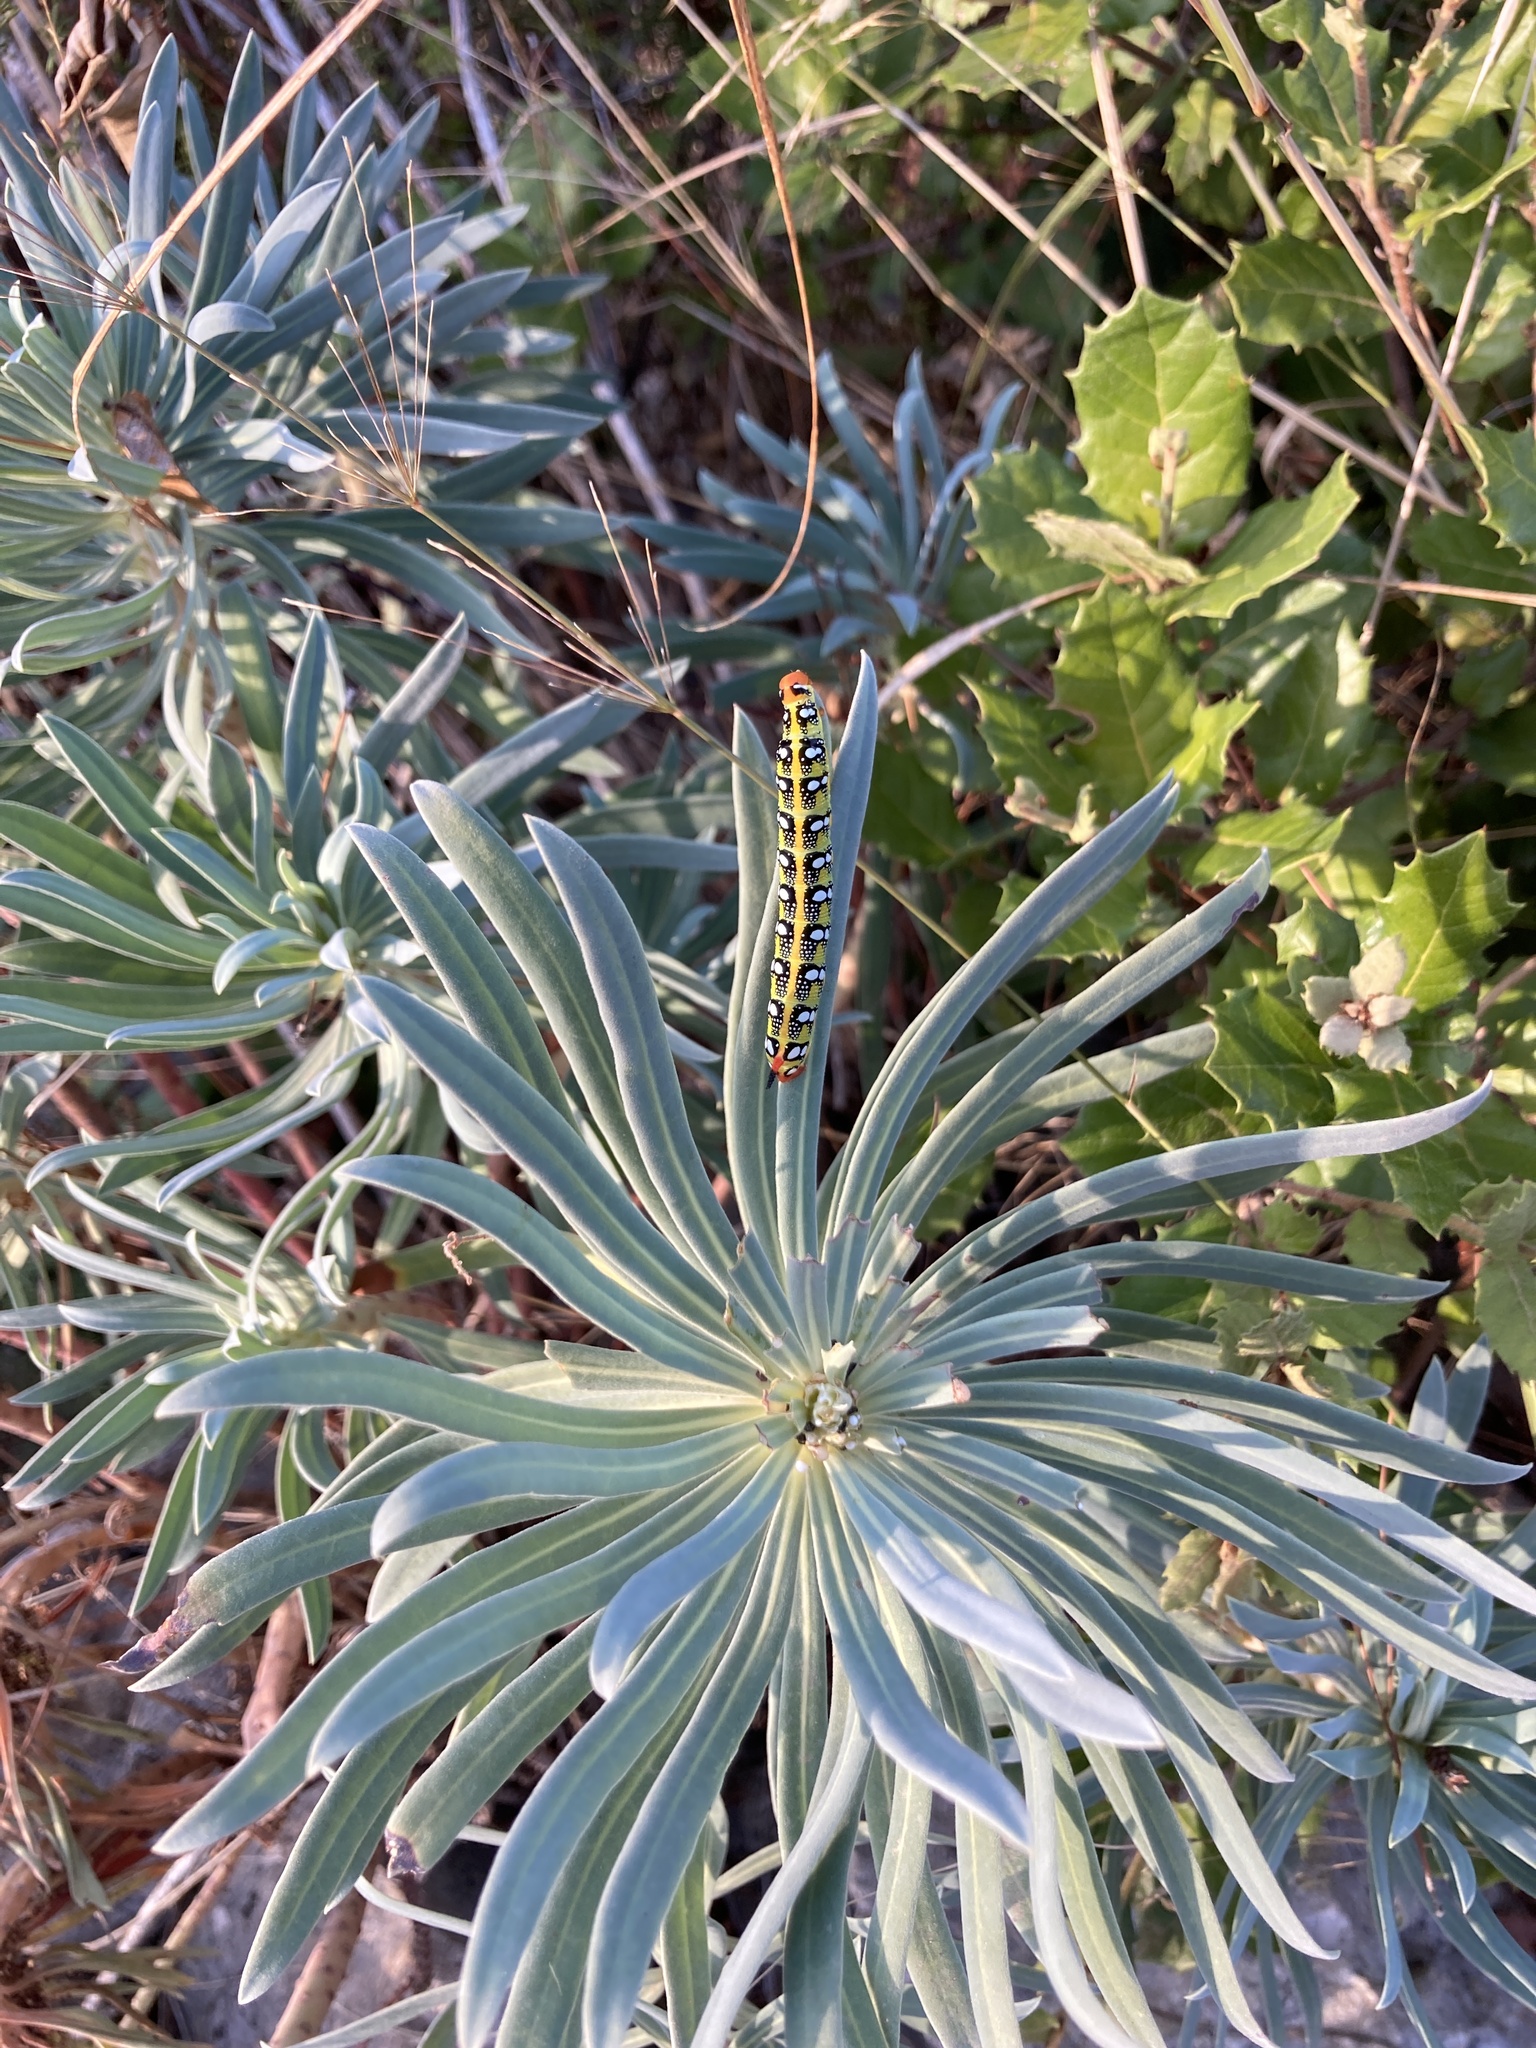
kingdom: Animalia
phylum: Arthropoda
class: Insecta
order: Lepidoptera
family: Sphingidae
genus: Hyles
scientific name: Hyles euphorbiae
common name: Spurge hawk-moth
